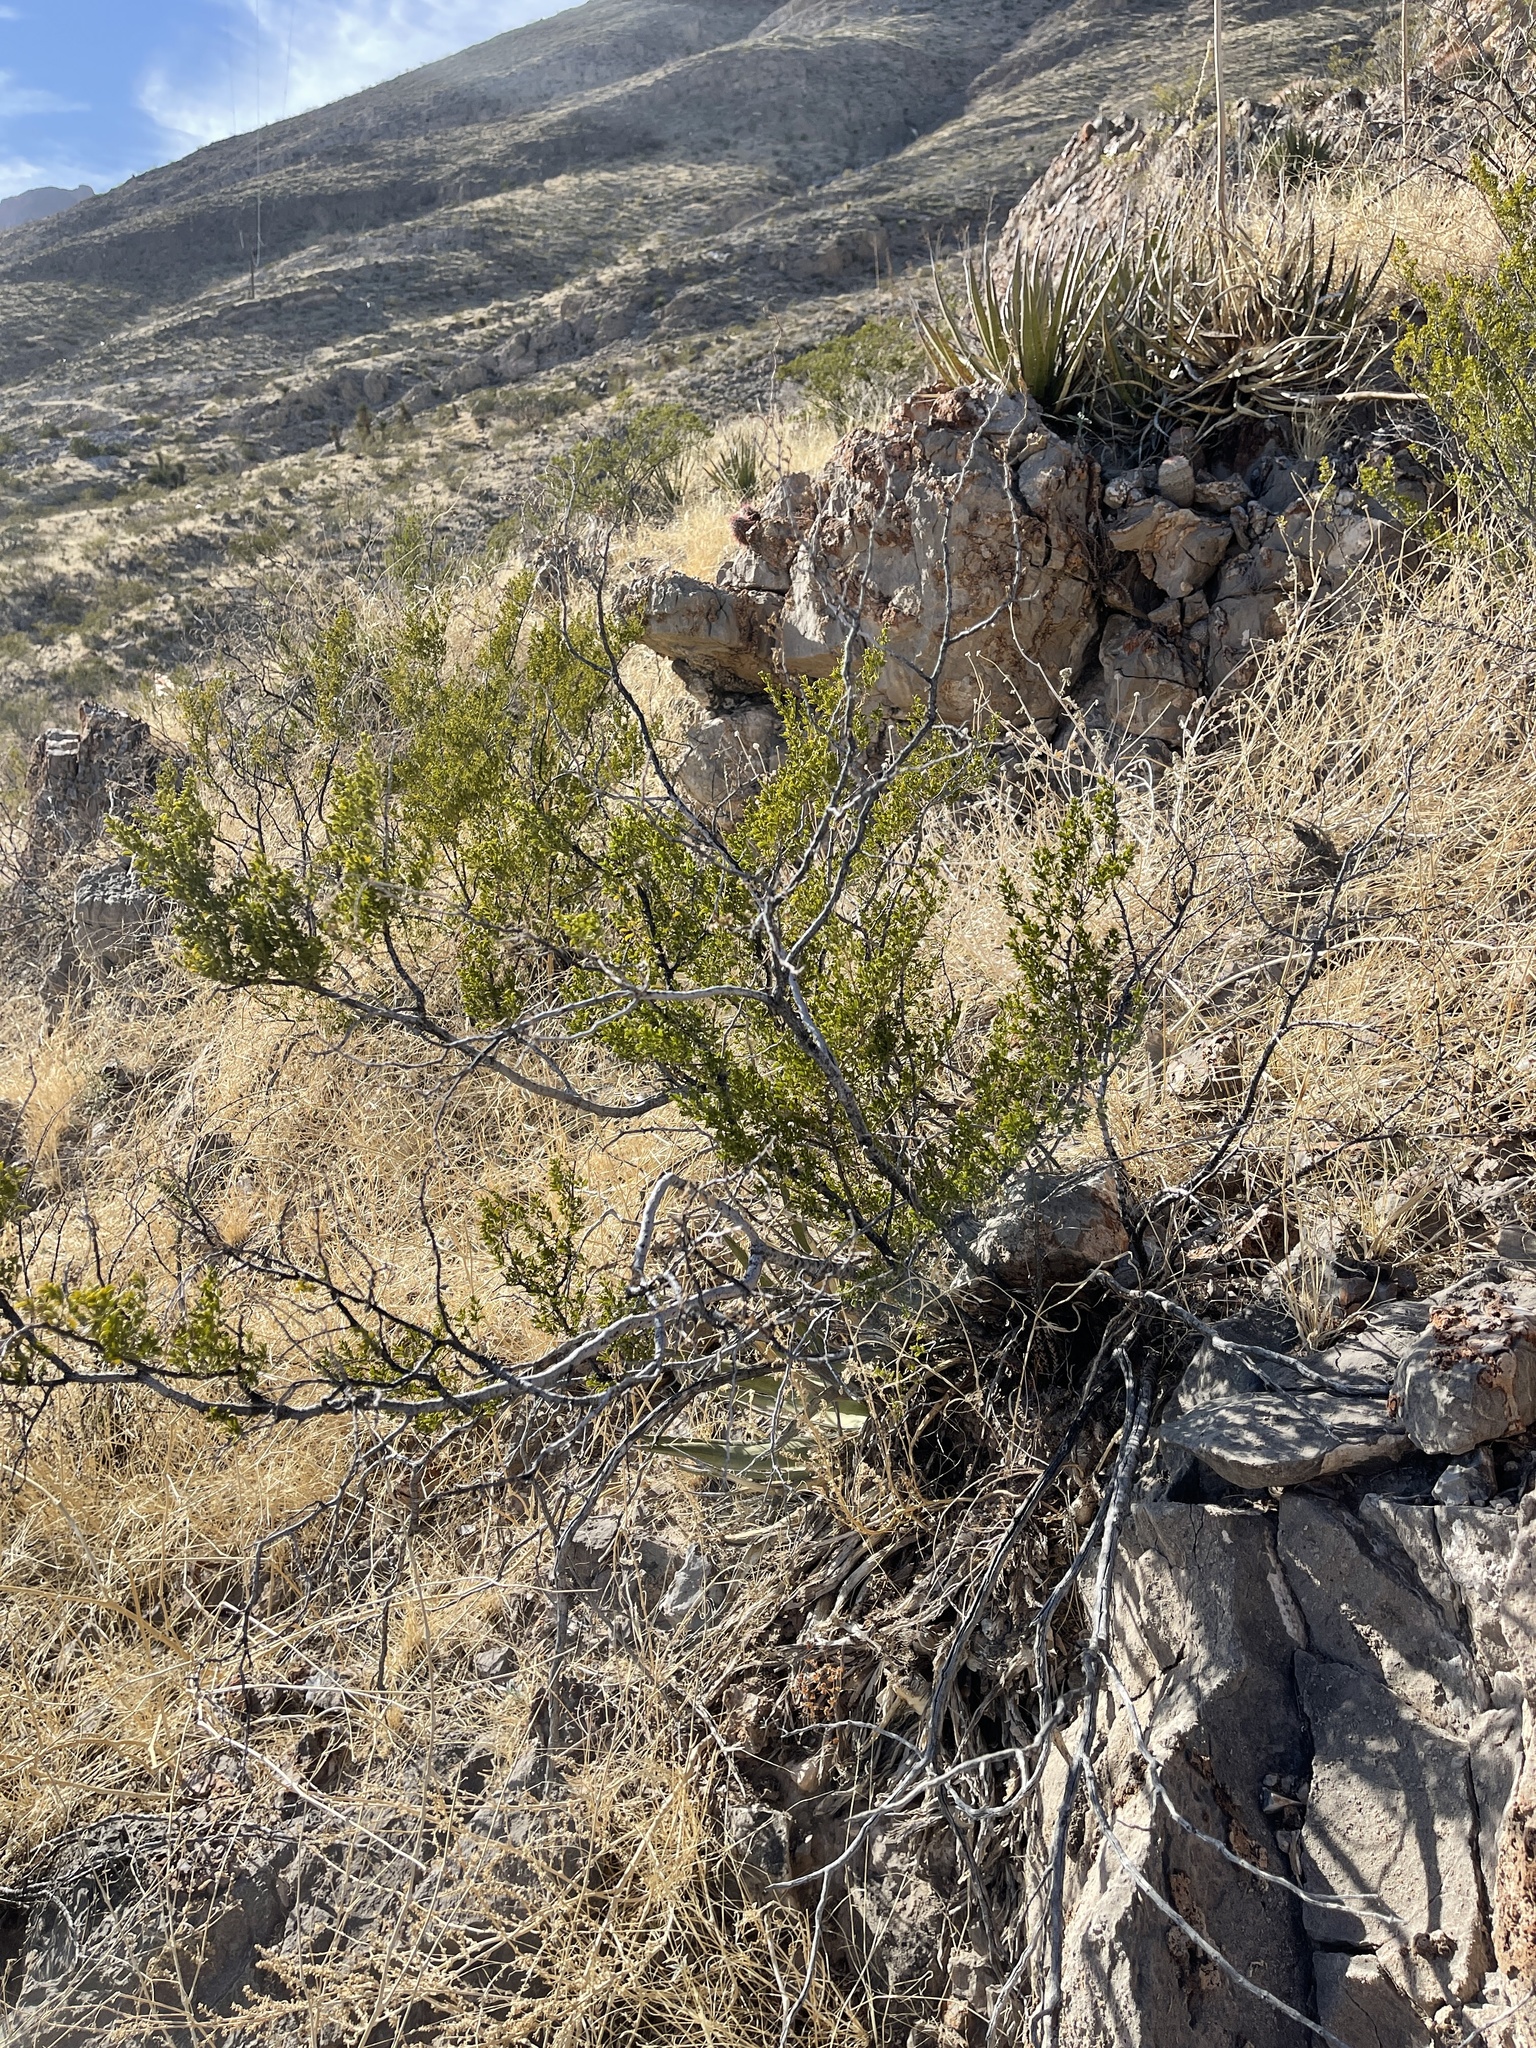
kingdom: Plantae
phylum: Tracheophyta
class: Magnoliopsida
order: Zygophyllales
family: Zygophyllaceae
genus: Larrea
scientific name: Larrea tridentata
